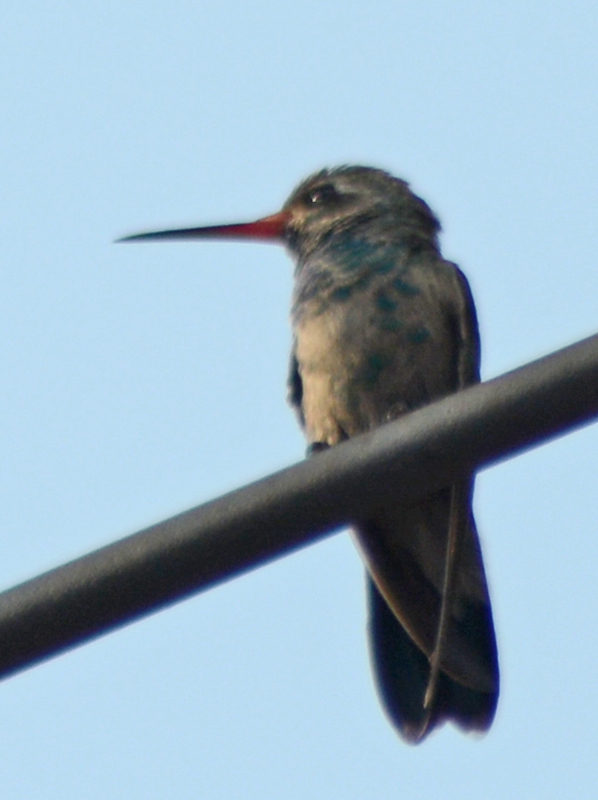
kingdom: Animalia
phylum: Chordata
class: Aves
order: Apodiformes
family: Trochilidae
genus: Cynanthus
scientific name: Cynanthus latirostris
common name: Broad-billed hummingbird
